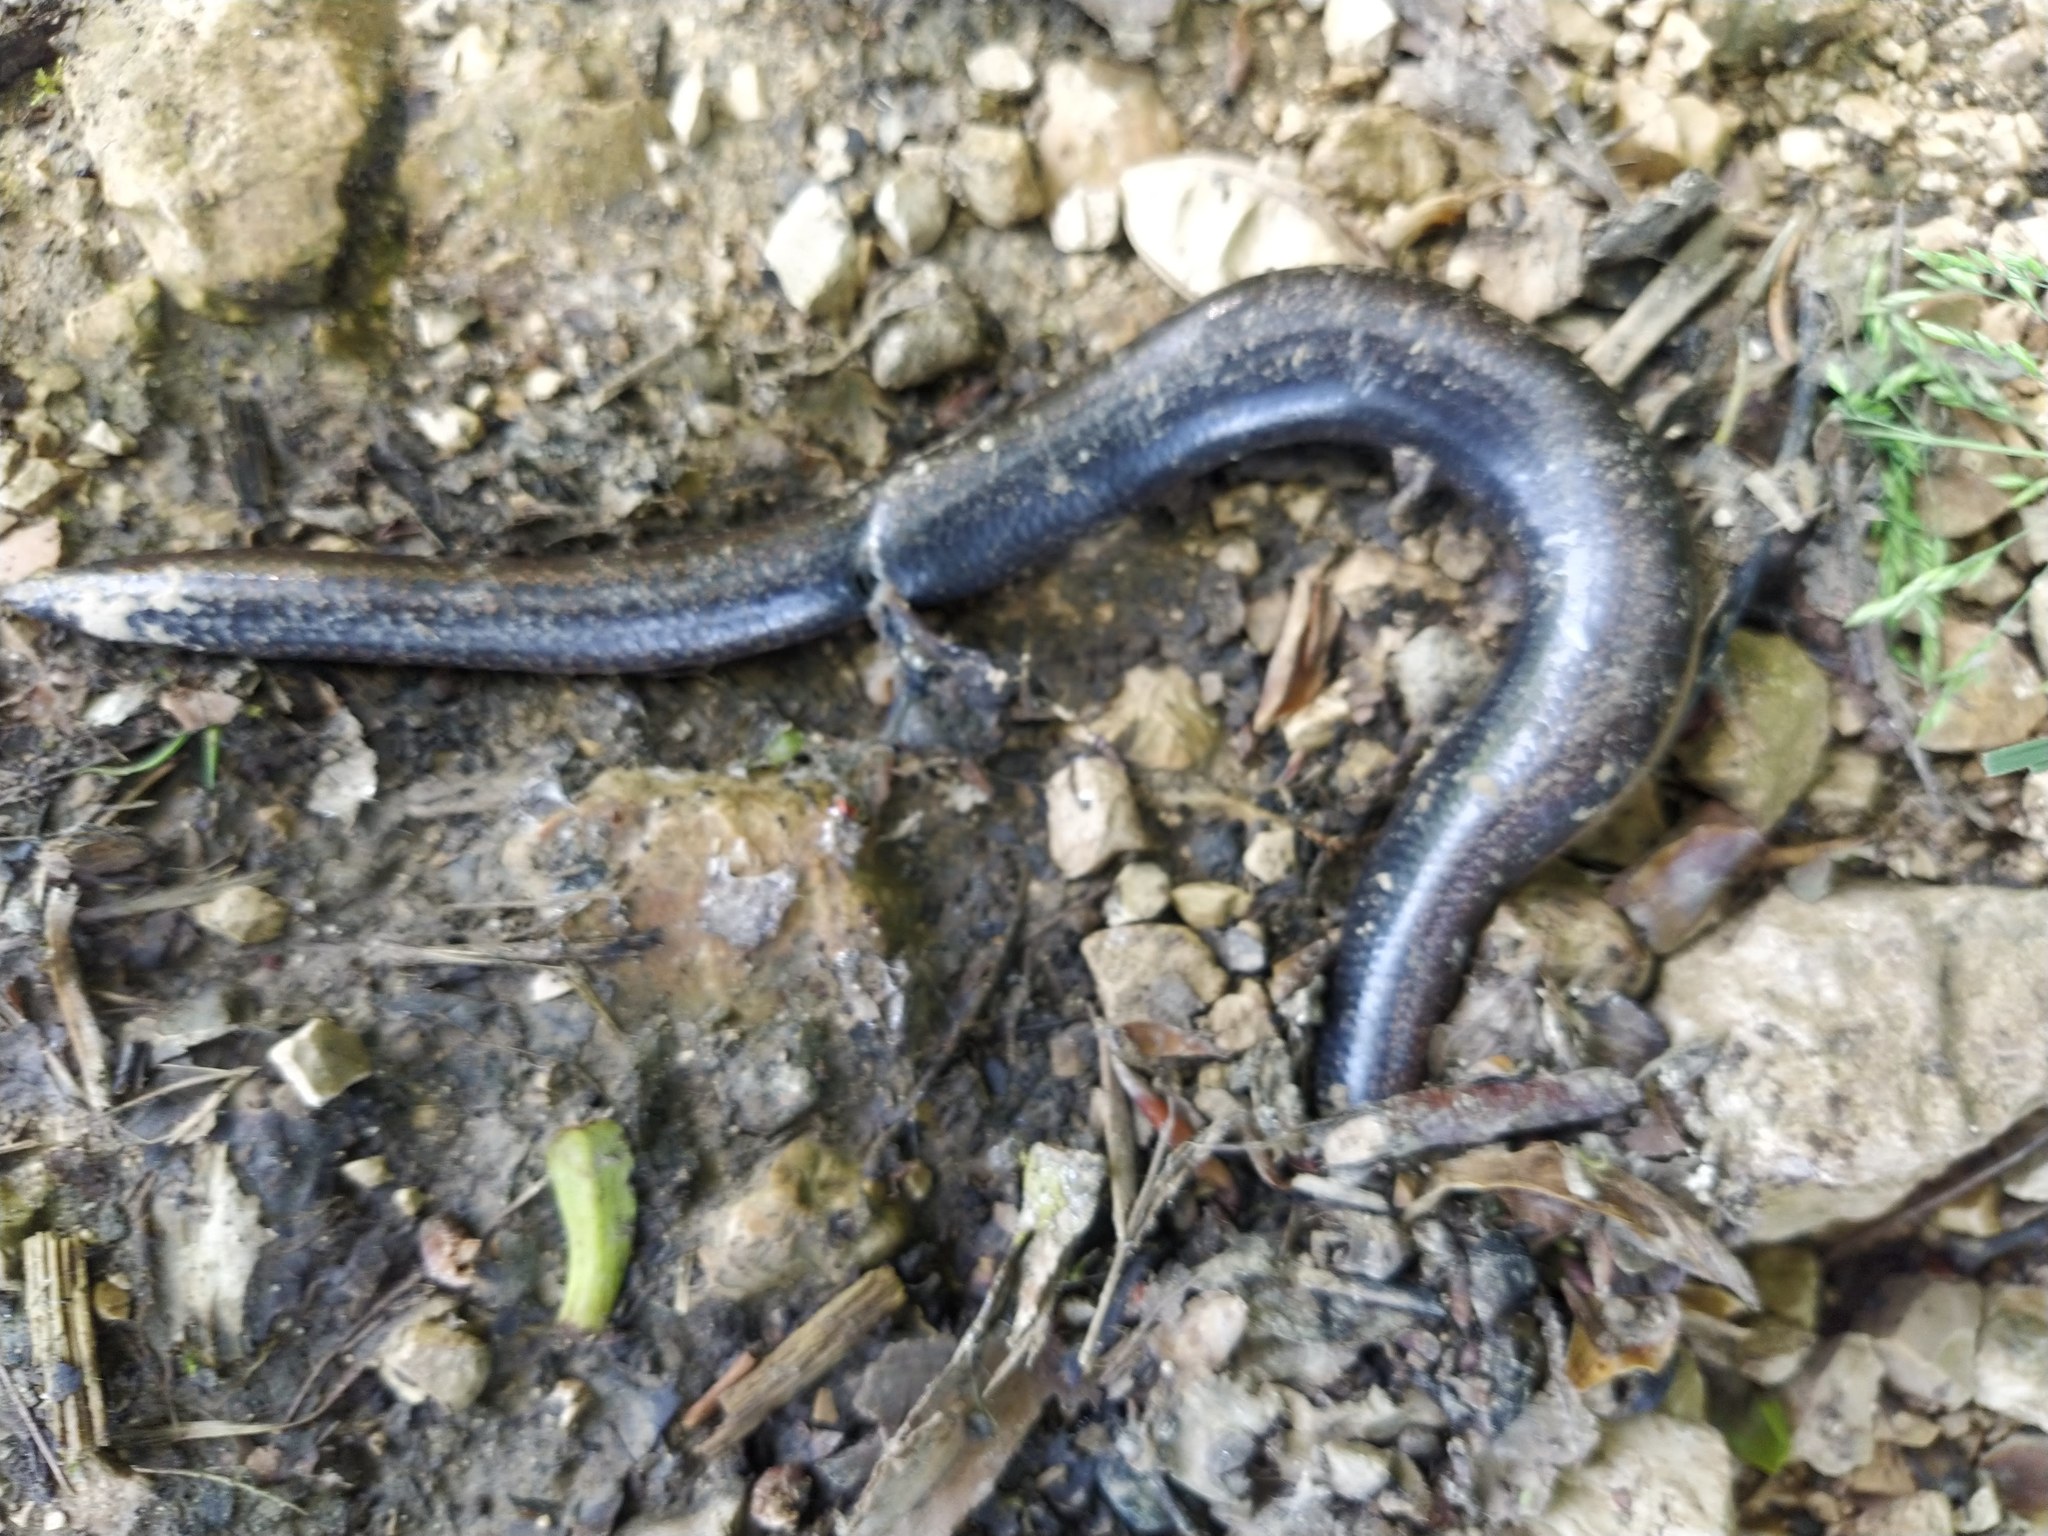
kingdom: Animalia
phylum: Chordata
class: Squamata
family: Anguidae
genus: Anguis
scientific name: Anguis fragilis
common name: Slow worm
